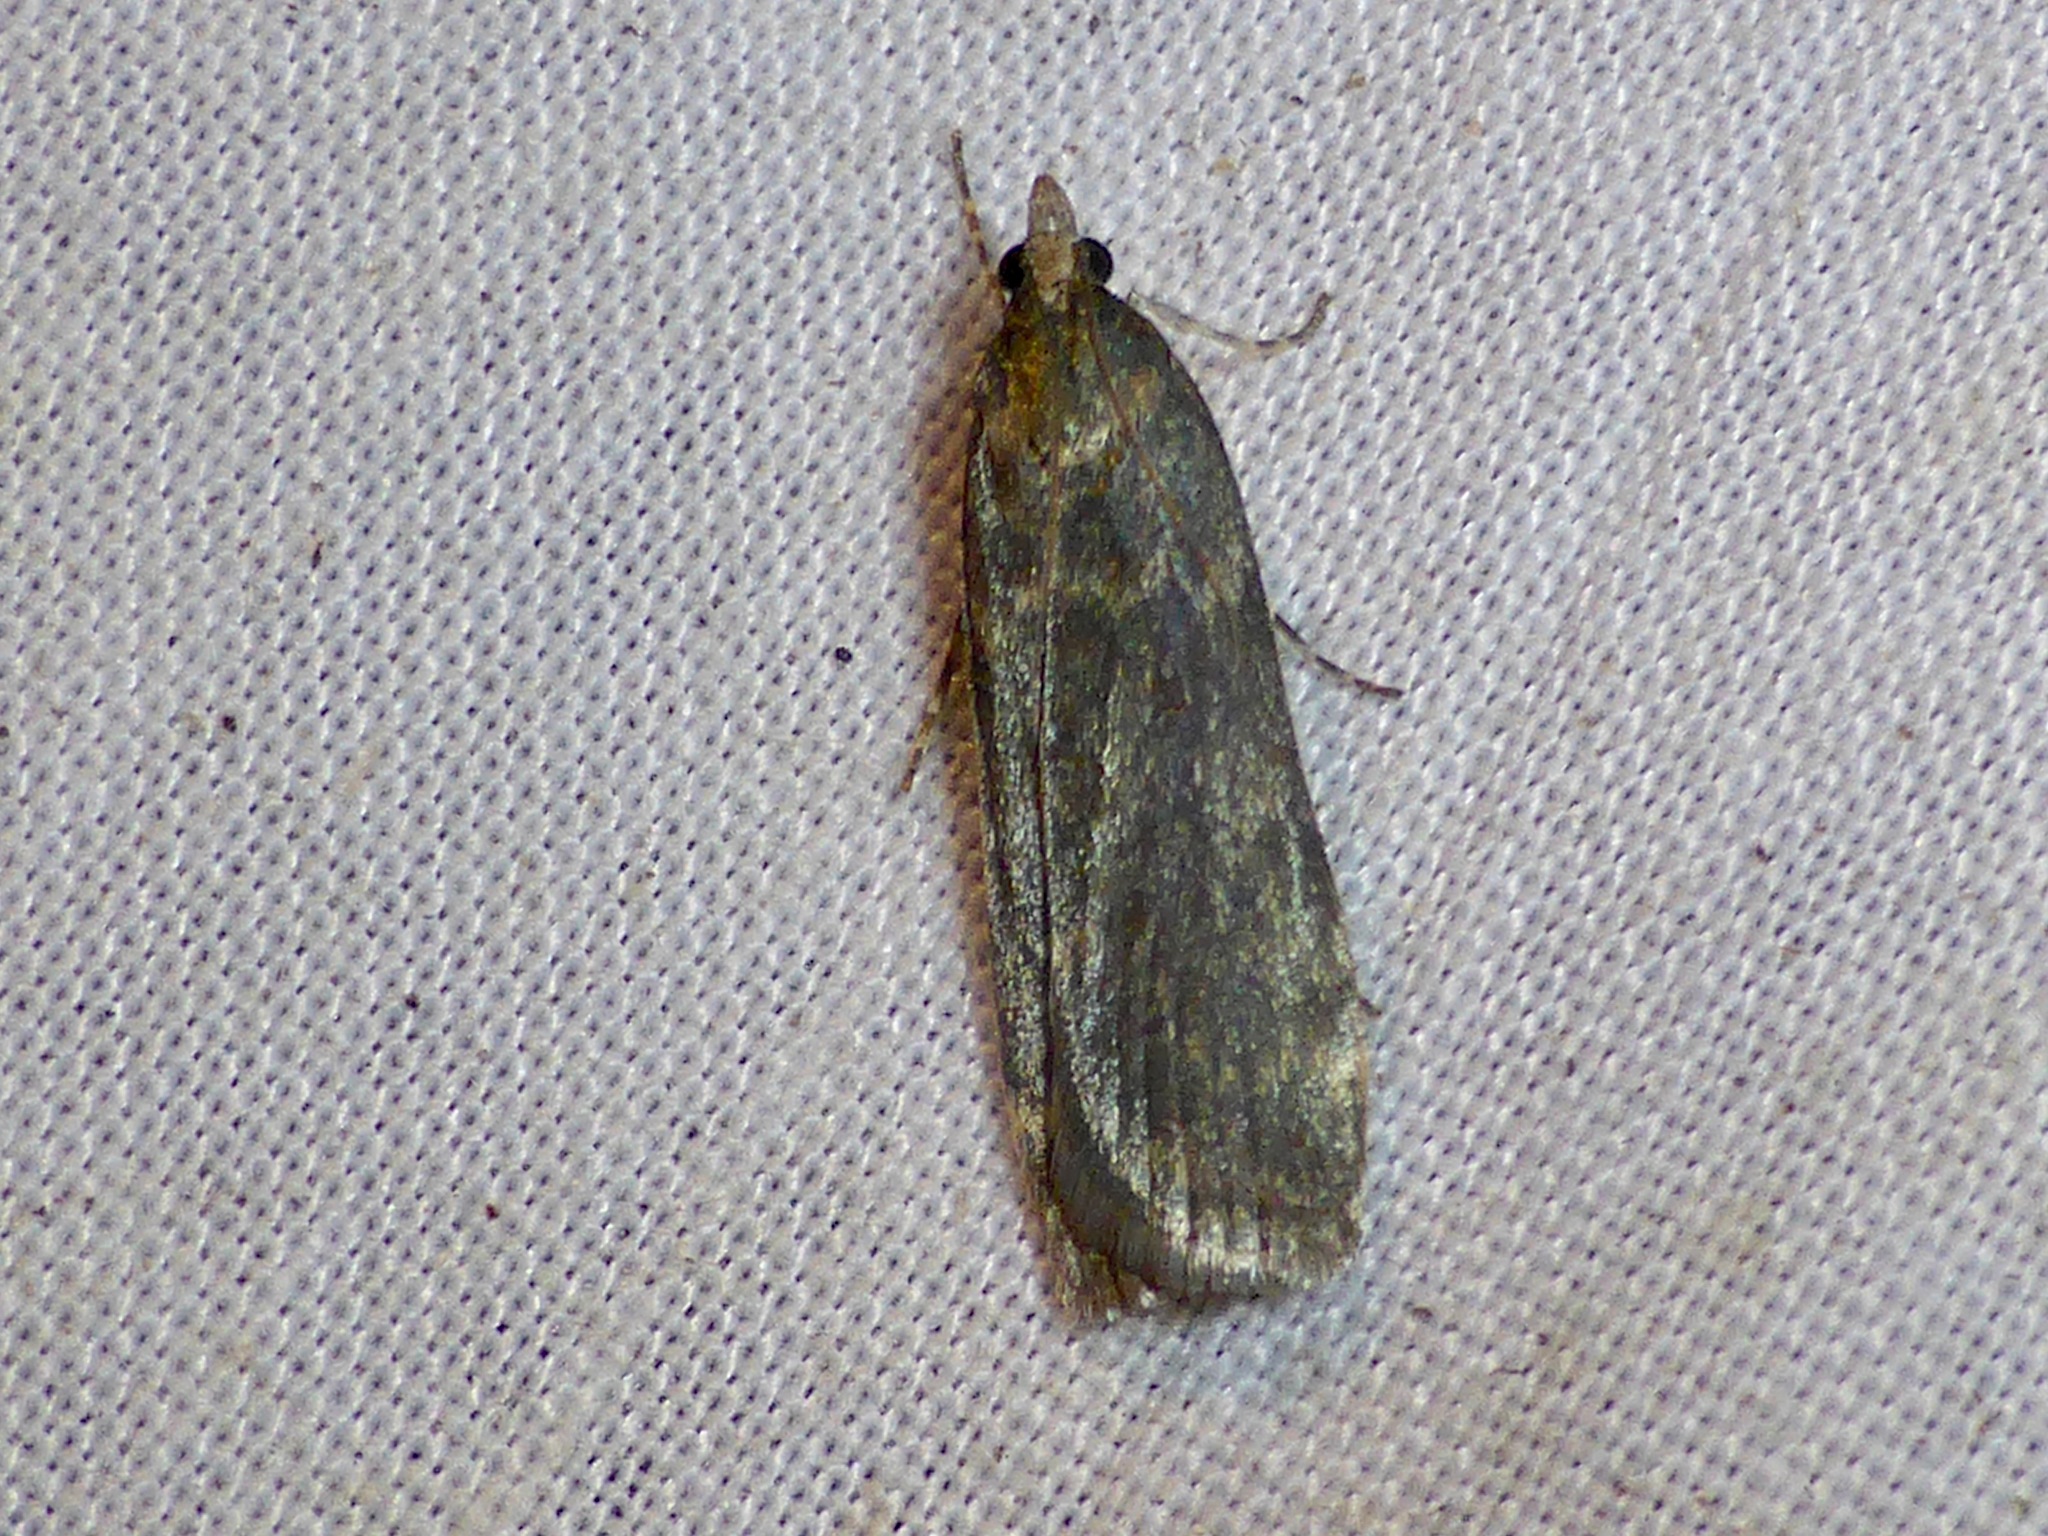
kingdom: Animalia
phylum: Arthropoda
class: Insecta
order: Lepidoptera
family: Crambidae
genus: Eudonia
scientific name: Eudonia cataxesta
